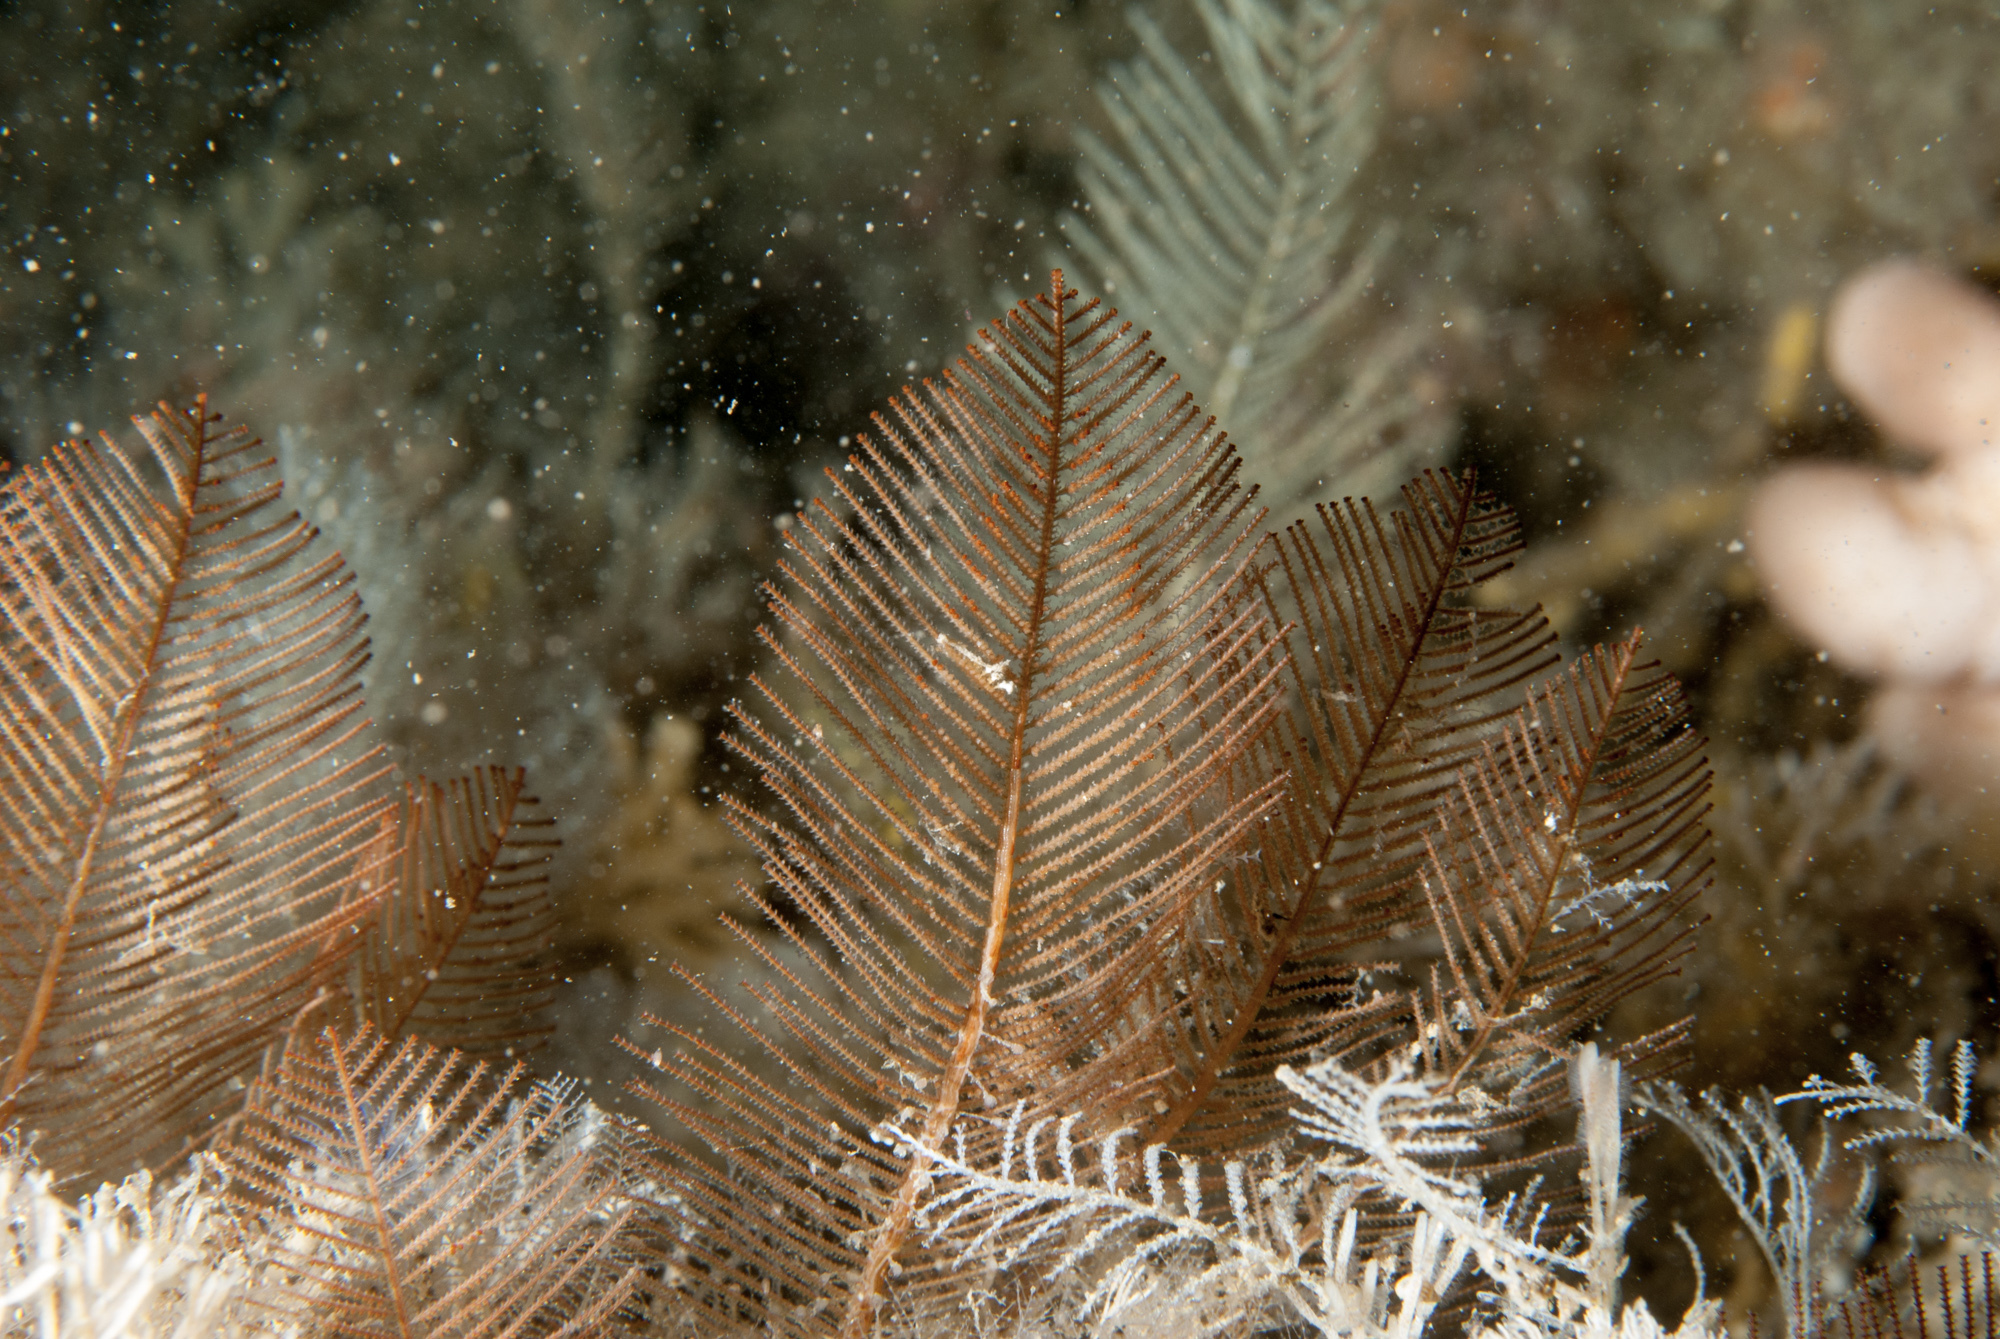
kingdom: Animalia
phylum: Cnidaria
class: Hydrozoa
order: Leptothecata
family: Sertulariidae
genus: Diphasia
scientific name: Diphasia alata
